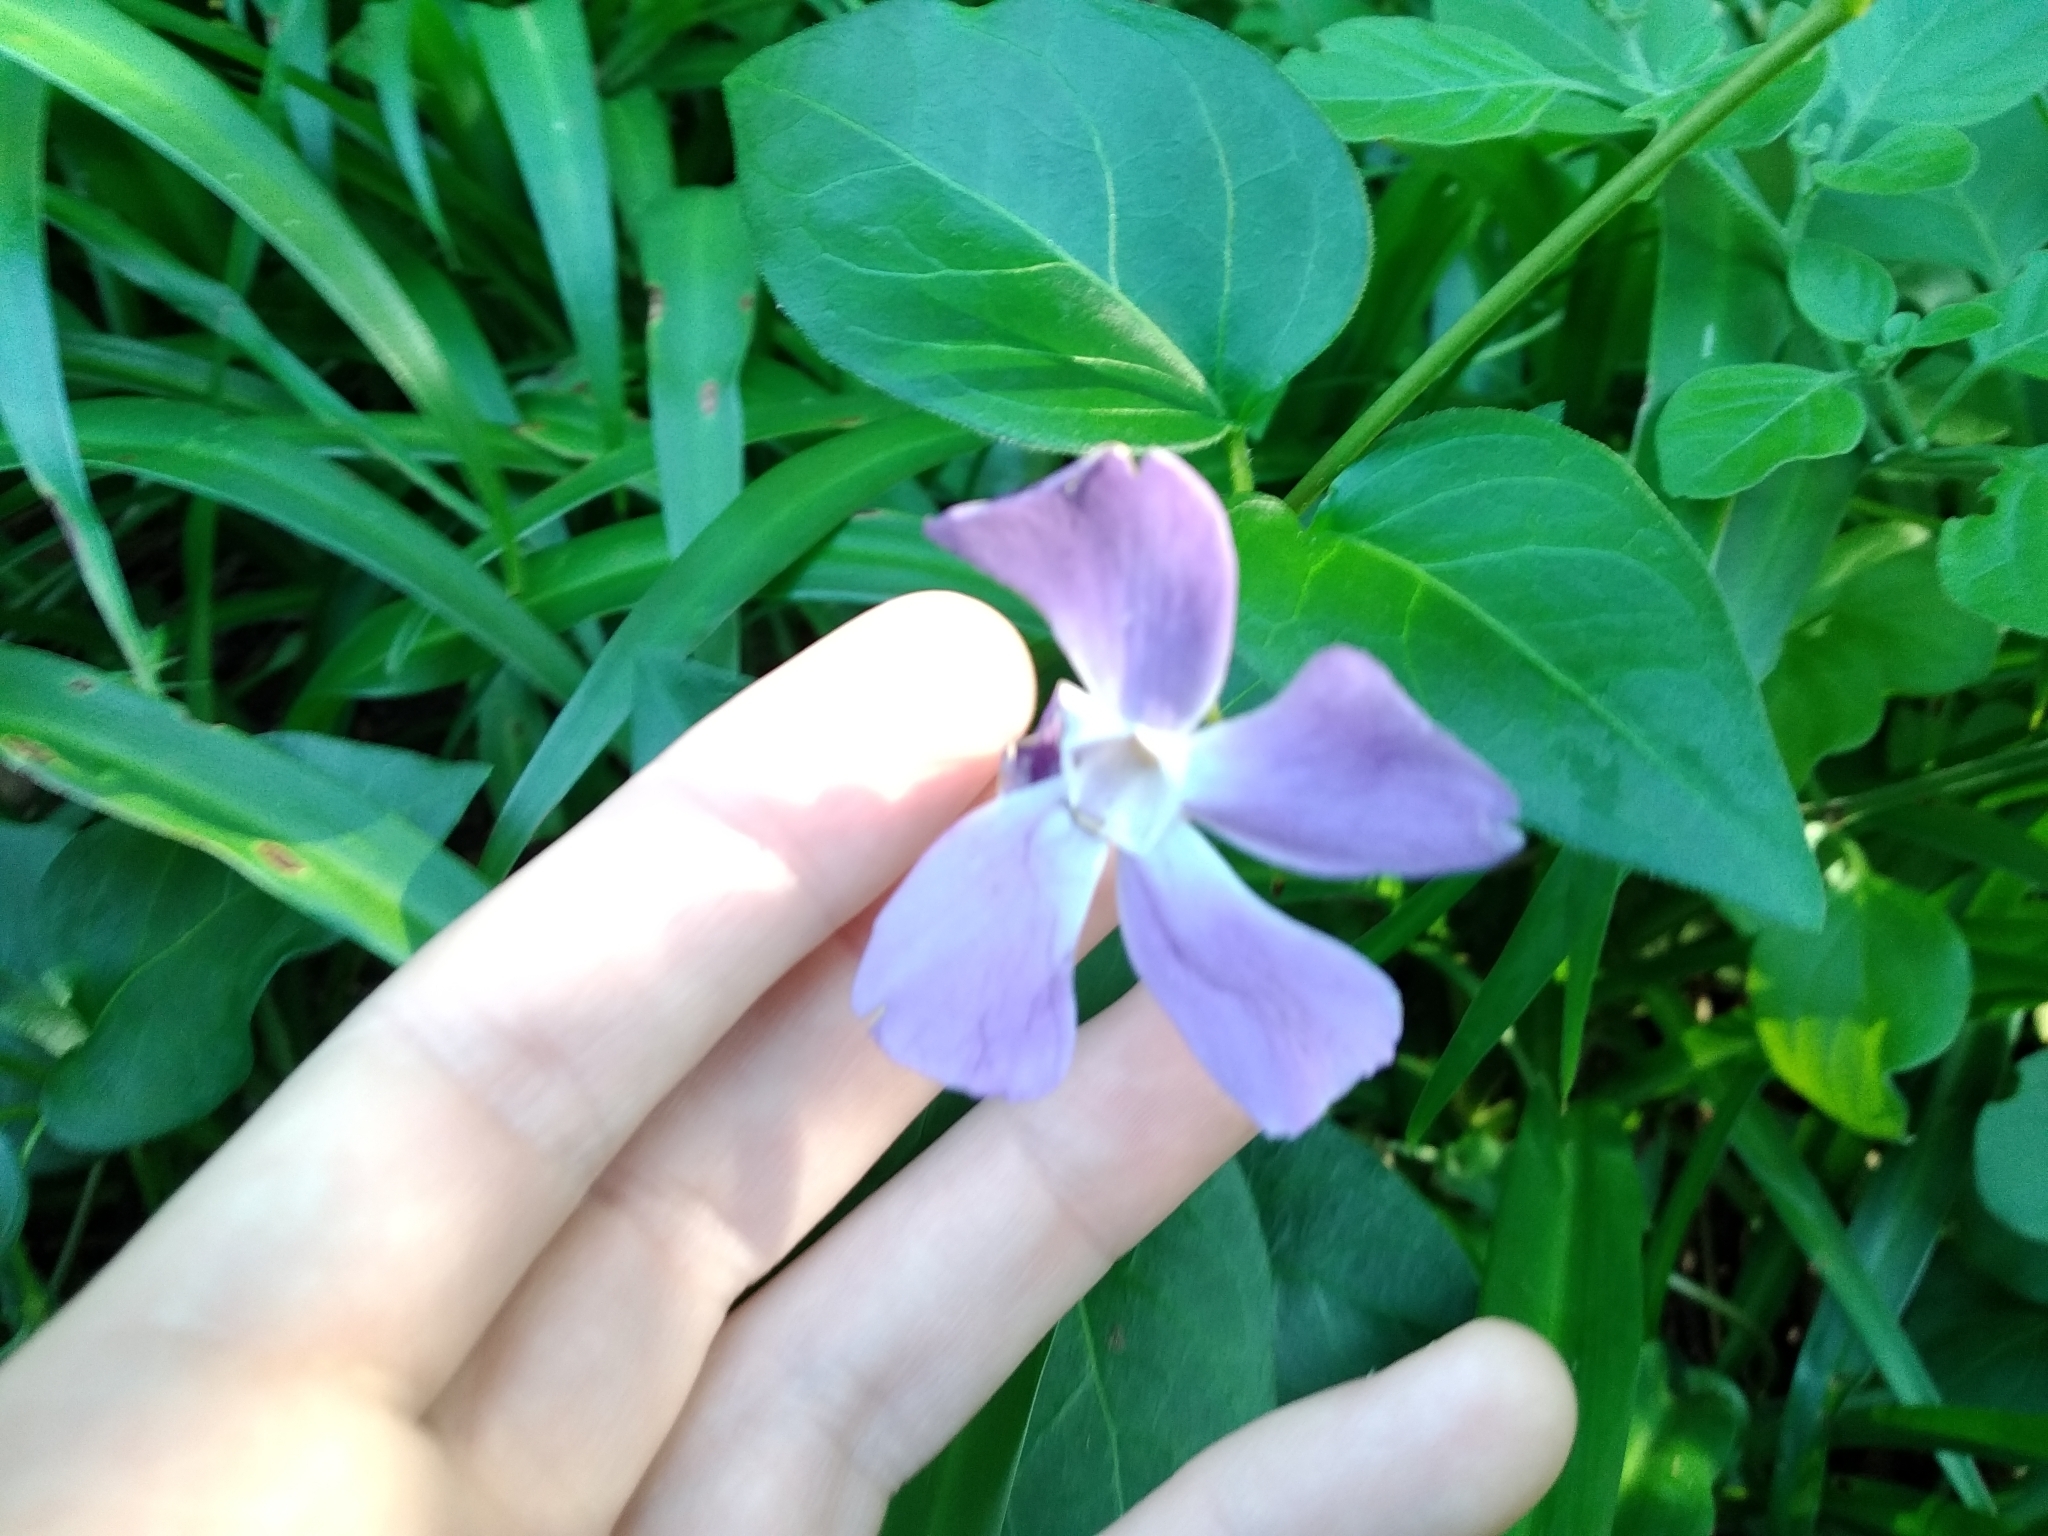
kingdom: Plantae
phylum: Tracheophyta
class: Magnoliopsida
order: Gentianales
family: Apocynaceae
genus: Vinca
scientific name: Vinca major
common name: Greater periwinkle
